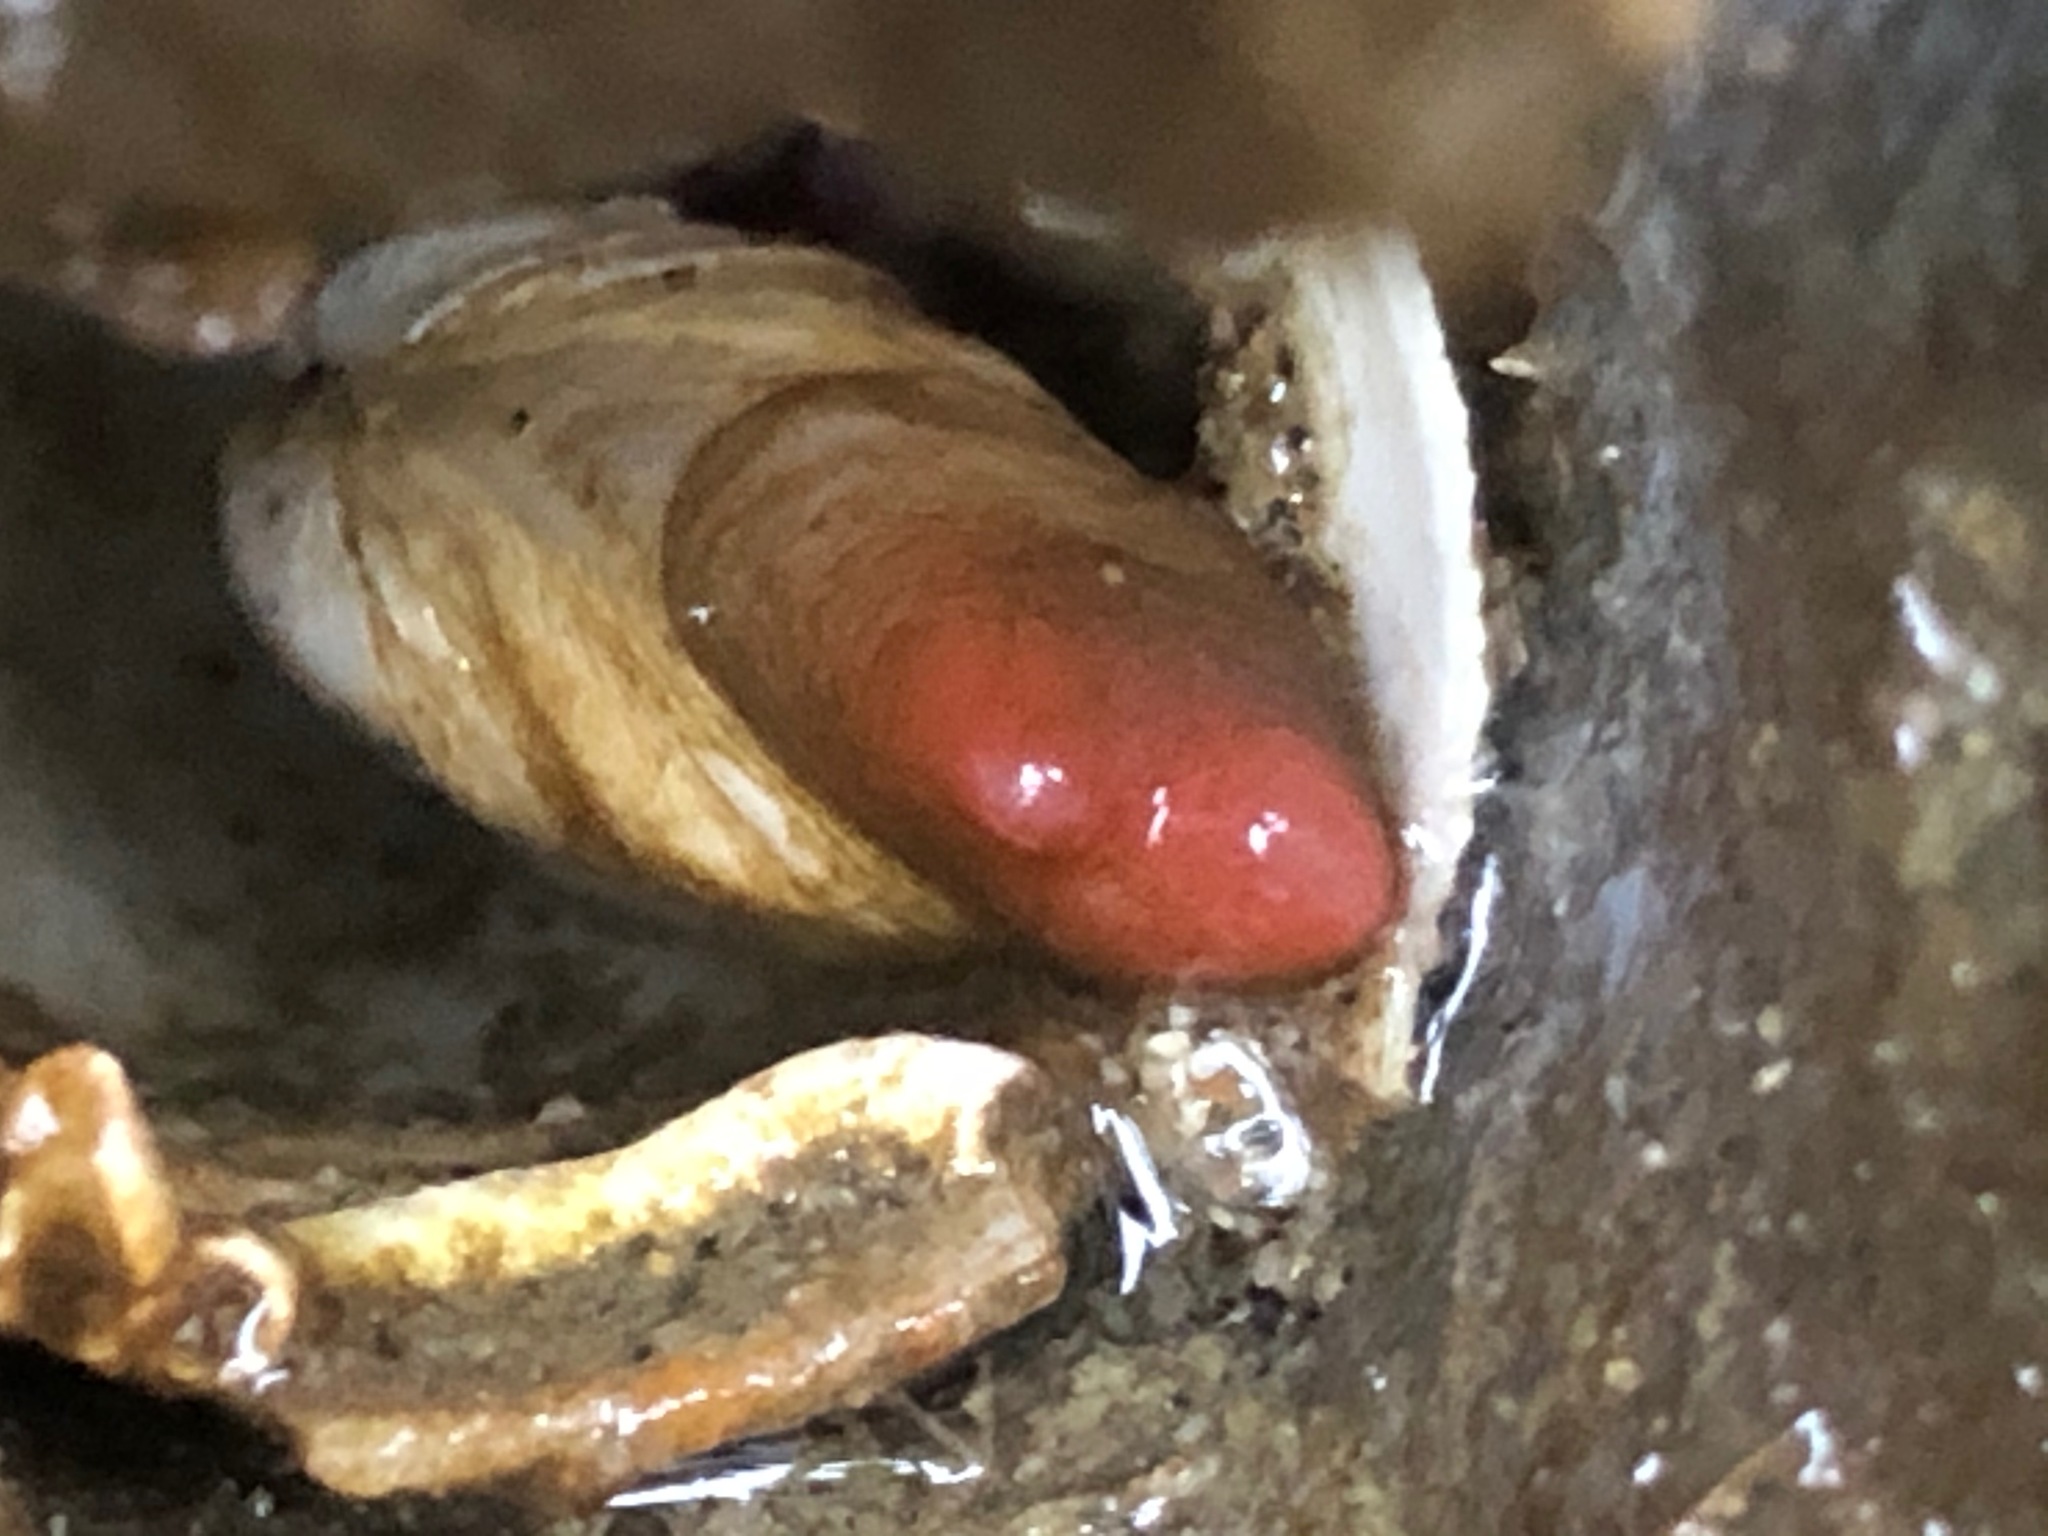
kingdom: Animalia
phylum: Mollusca
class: Bivalvia
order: Adapedonta
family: Hiatellidae
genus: Hiatella
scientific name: Hiatella arctica
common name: Arctic hiatella
